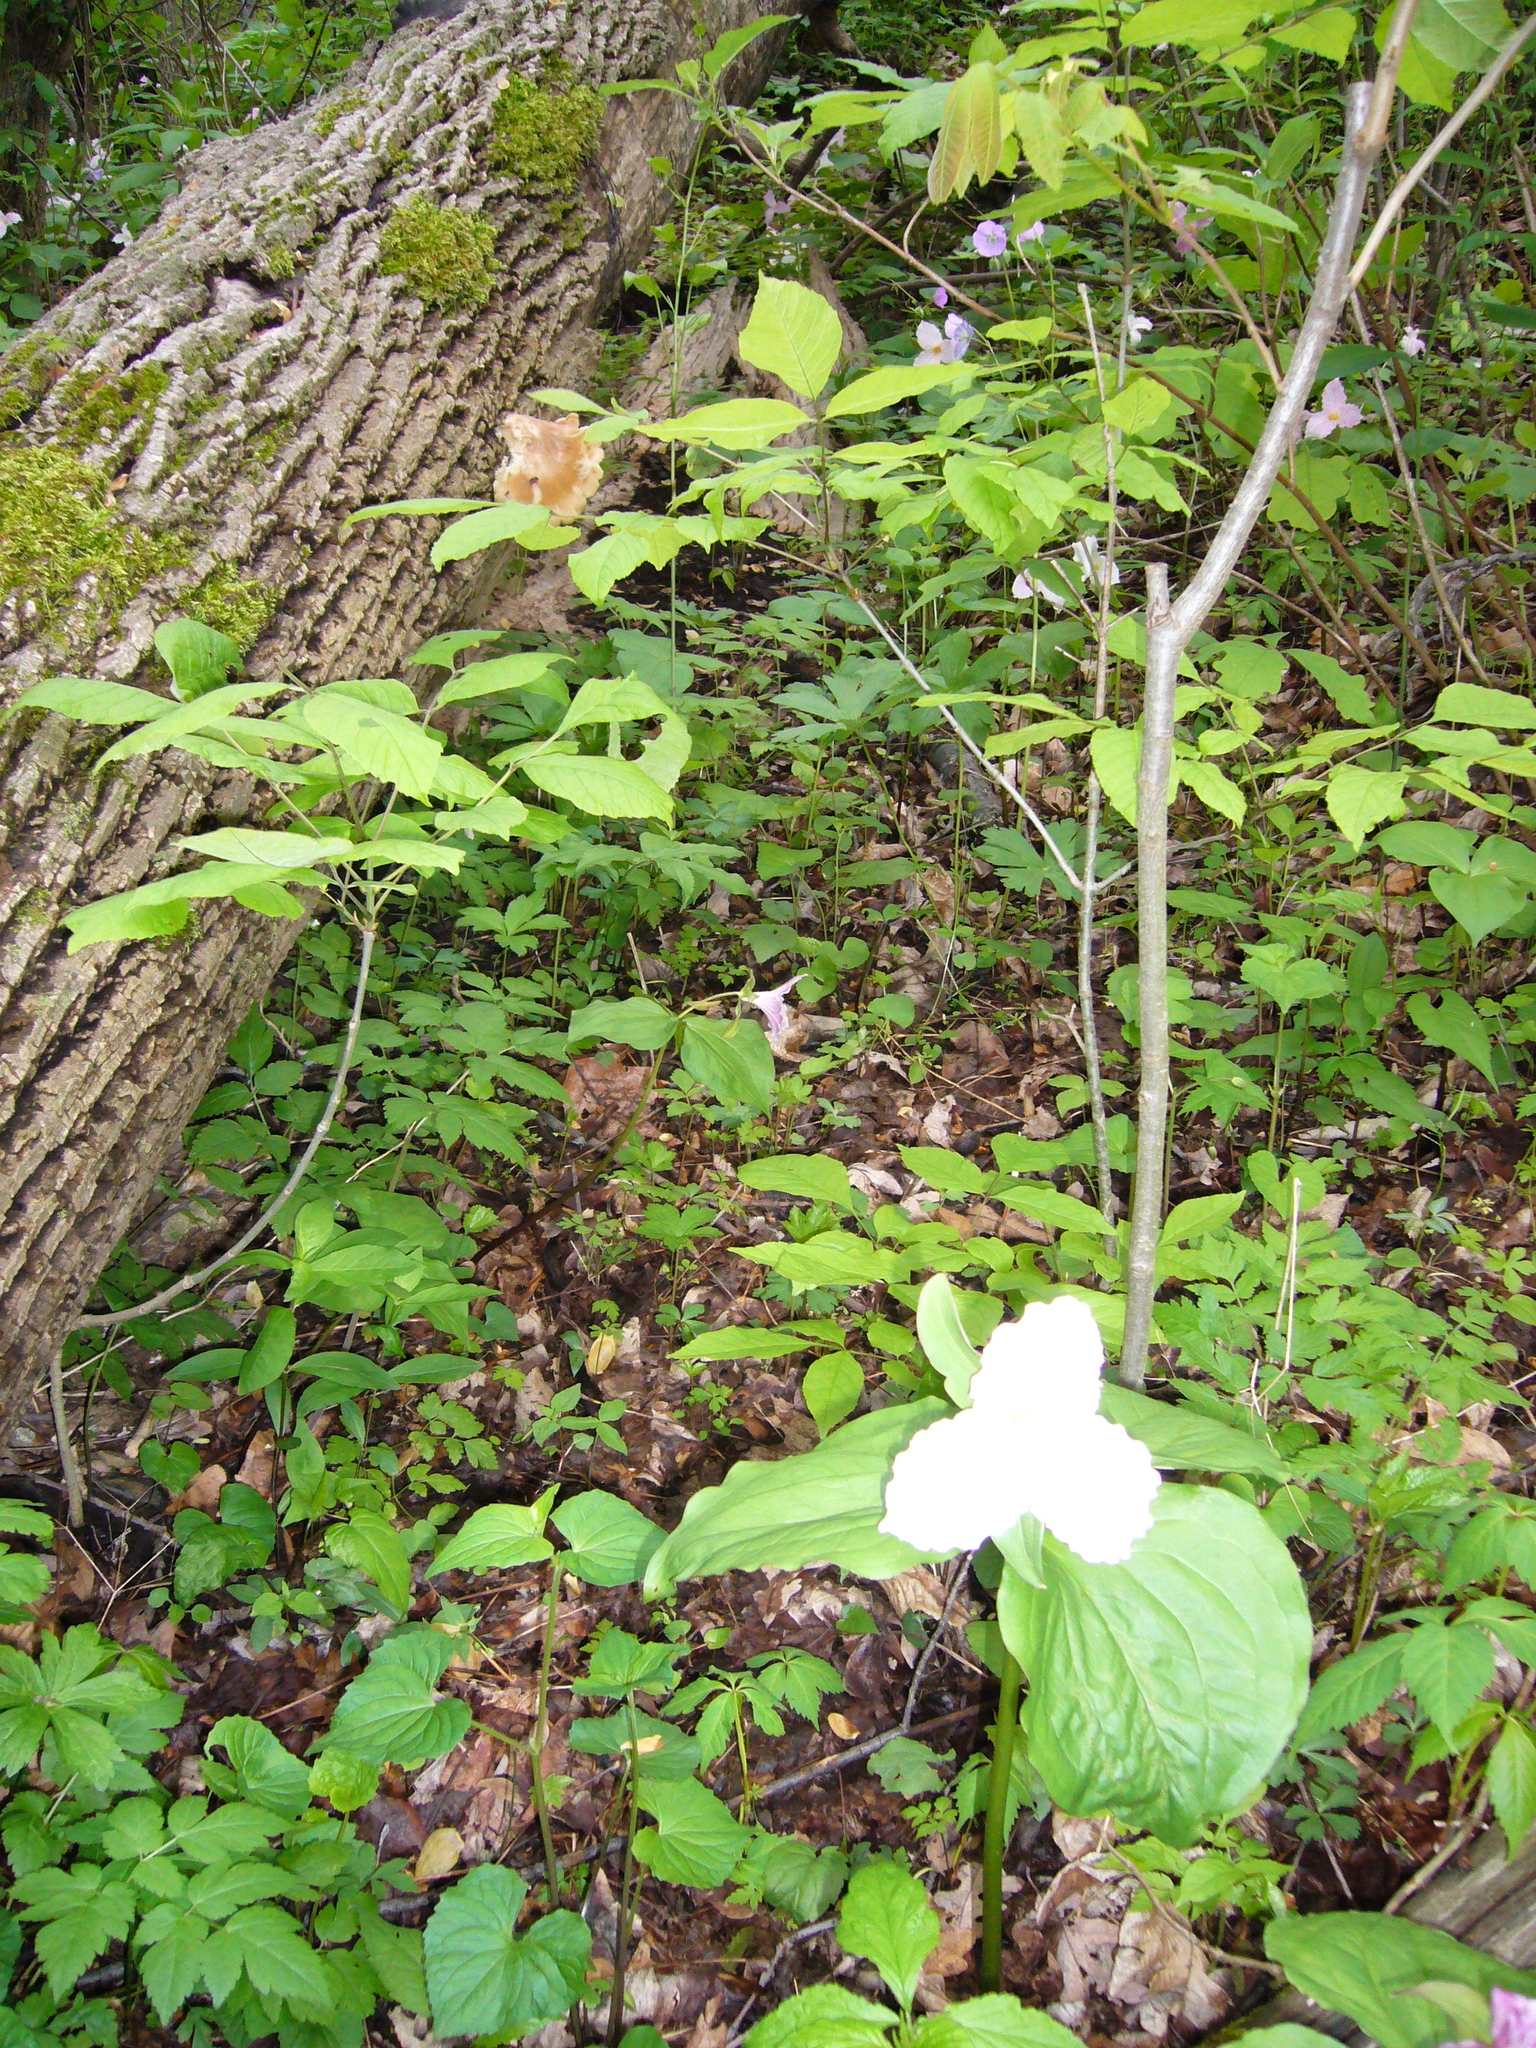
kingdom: Plantae
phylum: Tracheophyta
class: Liliopsida
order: Liliales
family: Melanthiaceae
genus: Trillium
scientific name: Trillium grandiflorum
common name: Great white trillium
